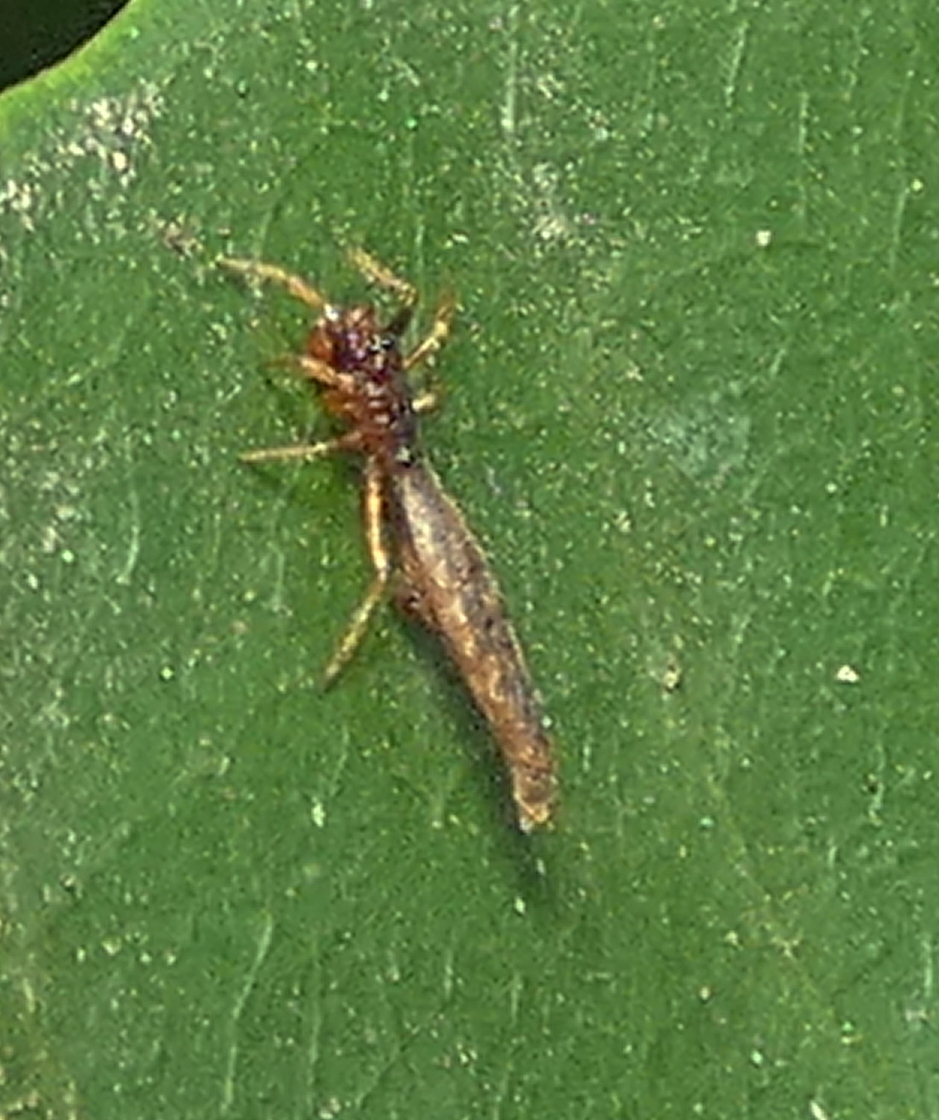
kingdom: Animalia
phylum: Arthropoda
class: Arachnida
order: Araneae
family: Araneidae
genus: Micrathena
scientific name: Micrathena horrida
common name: Orb weavers
